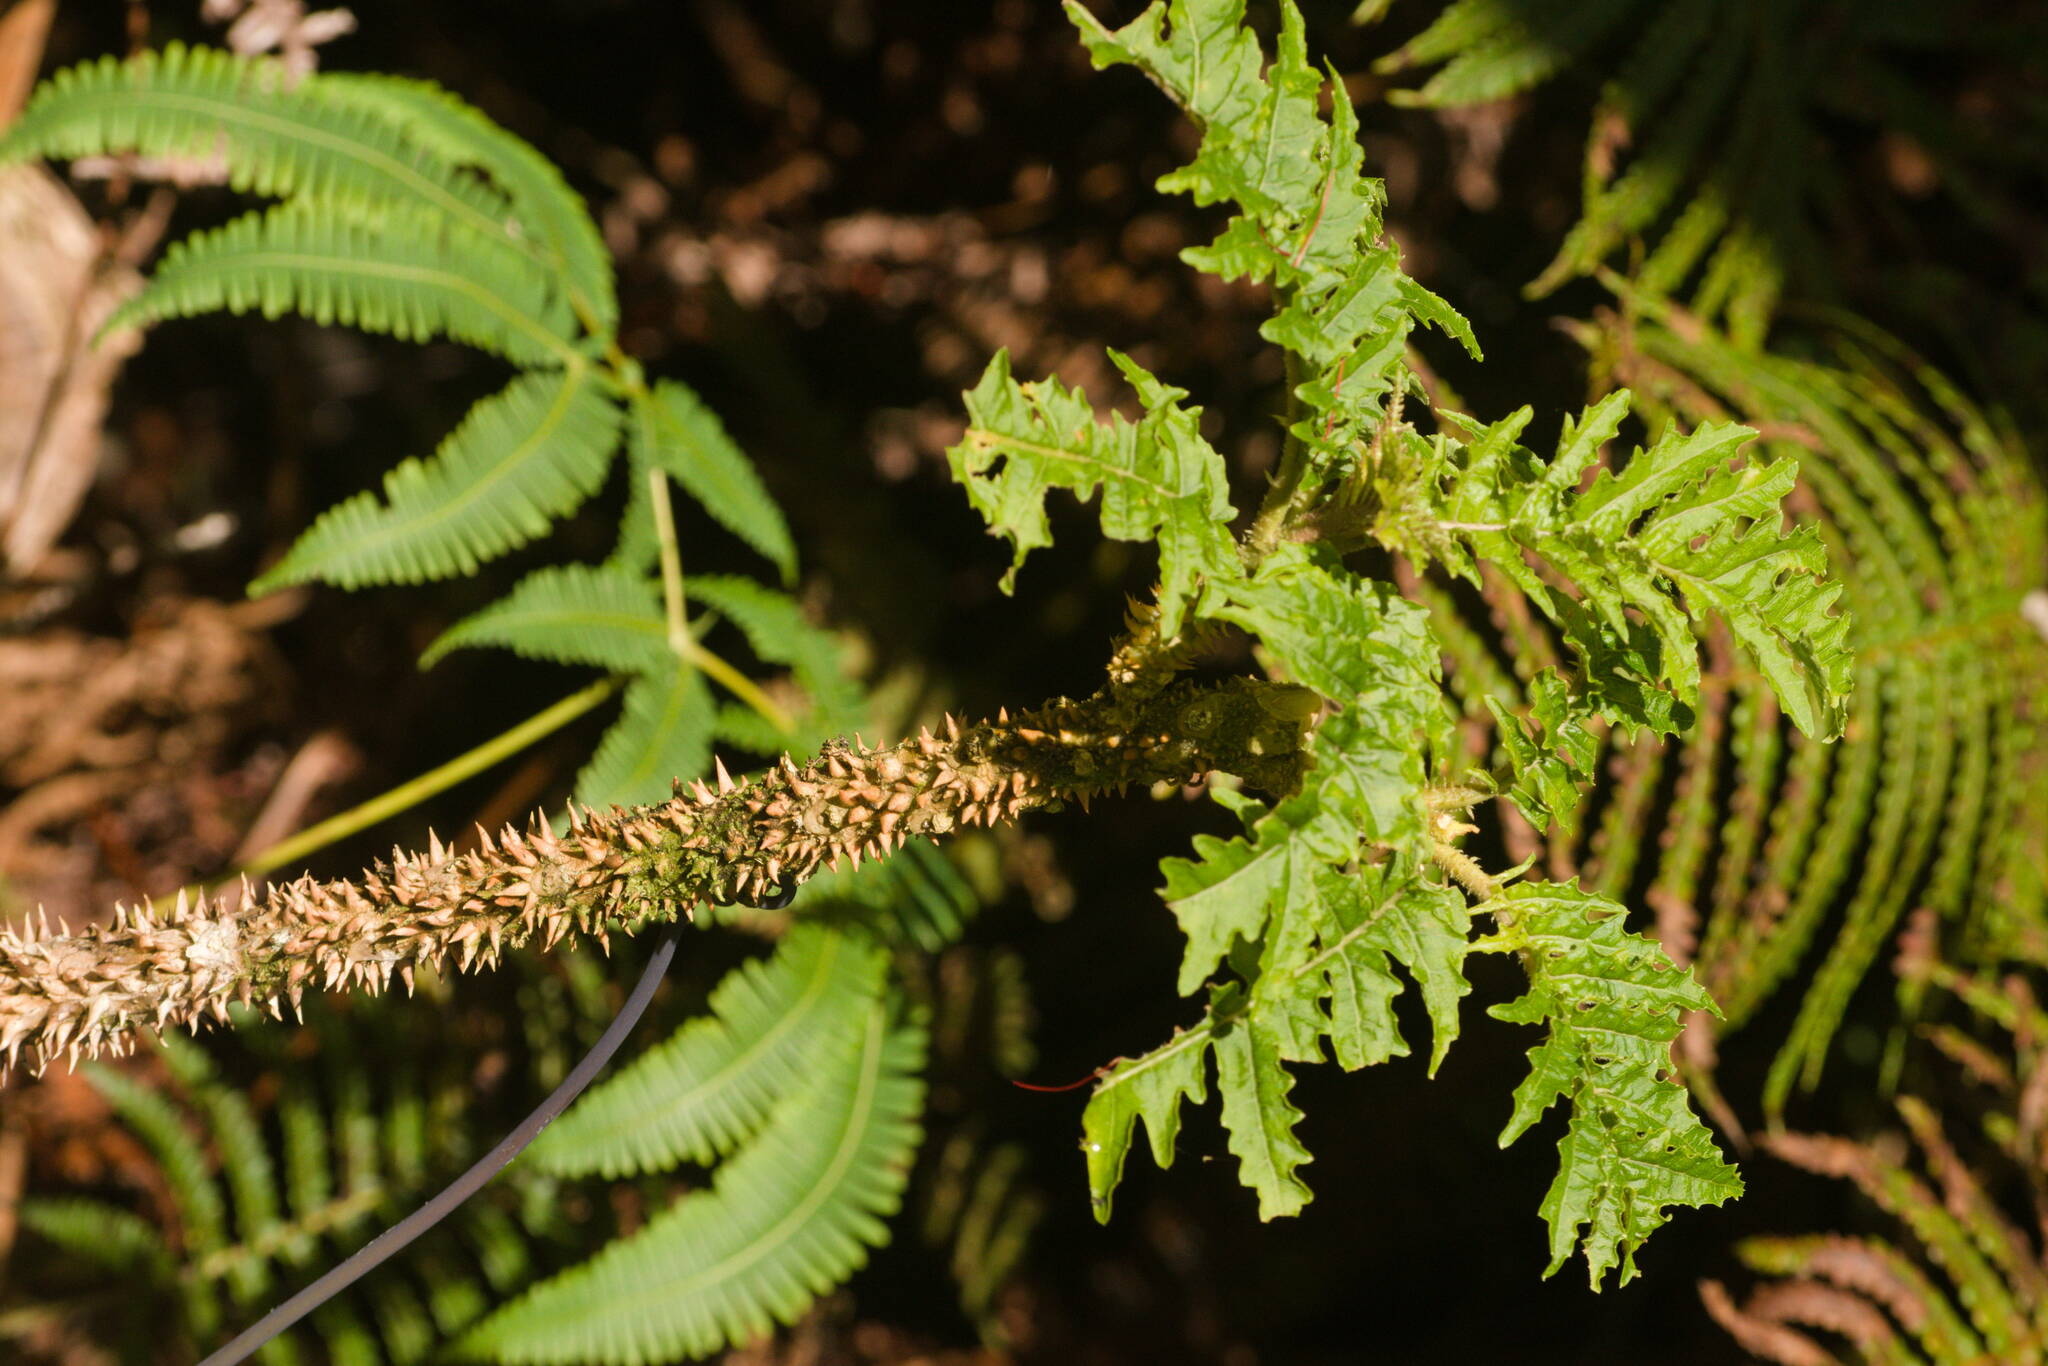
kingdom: Plantae
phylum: Tracheophyta
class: Magnoliopsida
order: Asterales
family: Campanulaceae
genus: Cyanea
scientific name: Cyanea solanacea
